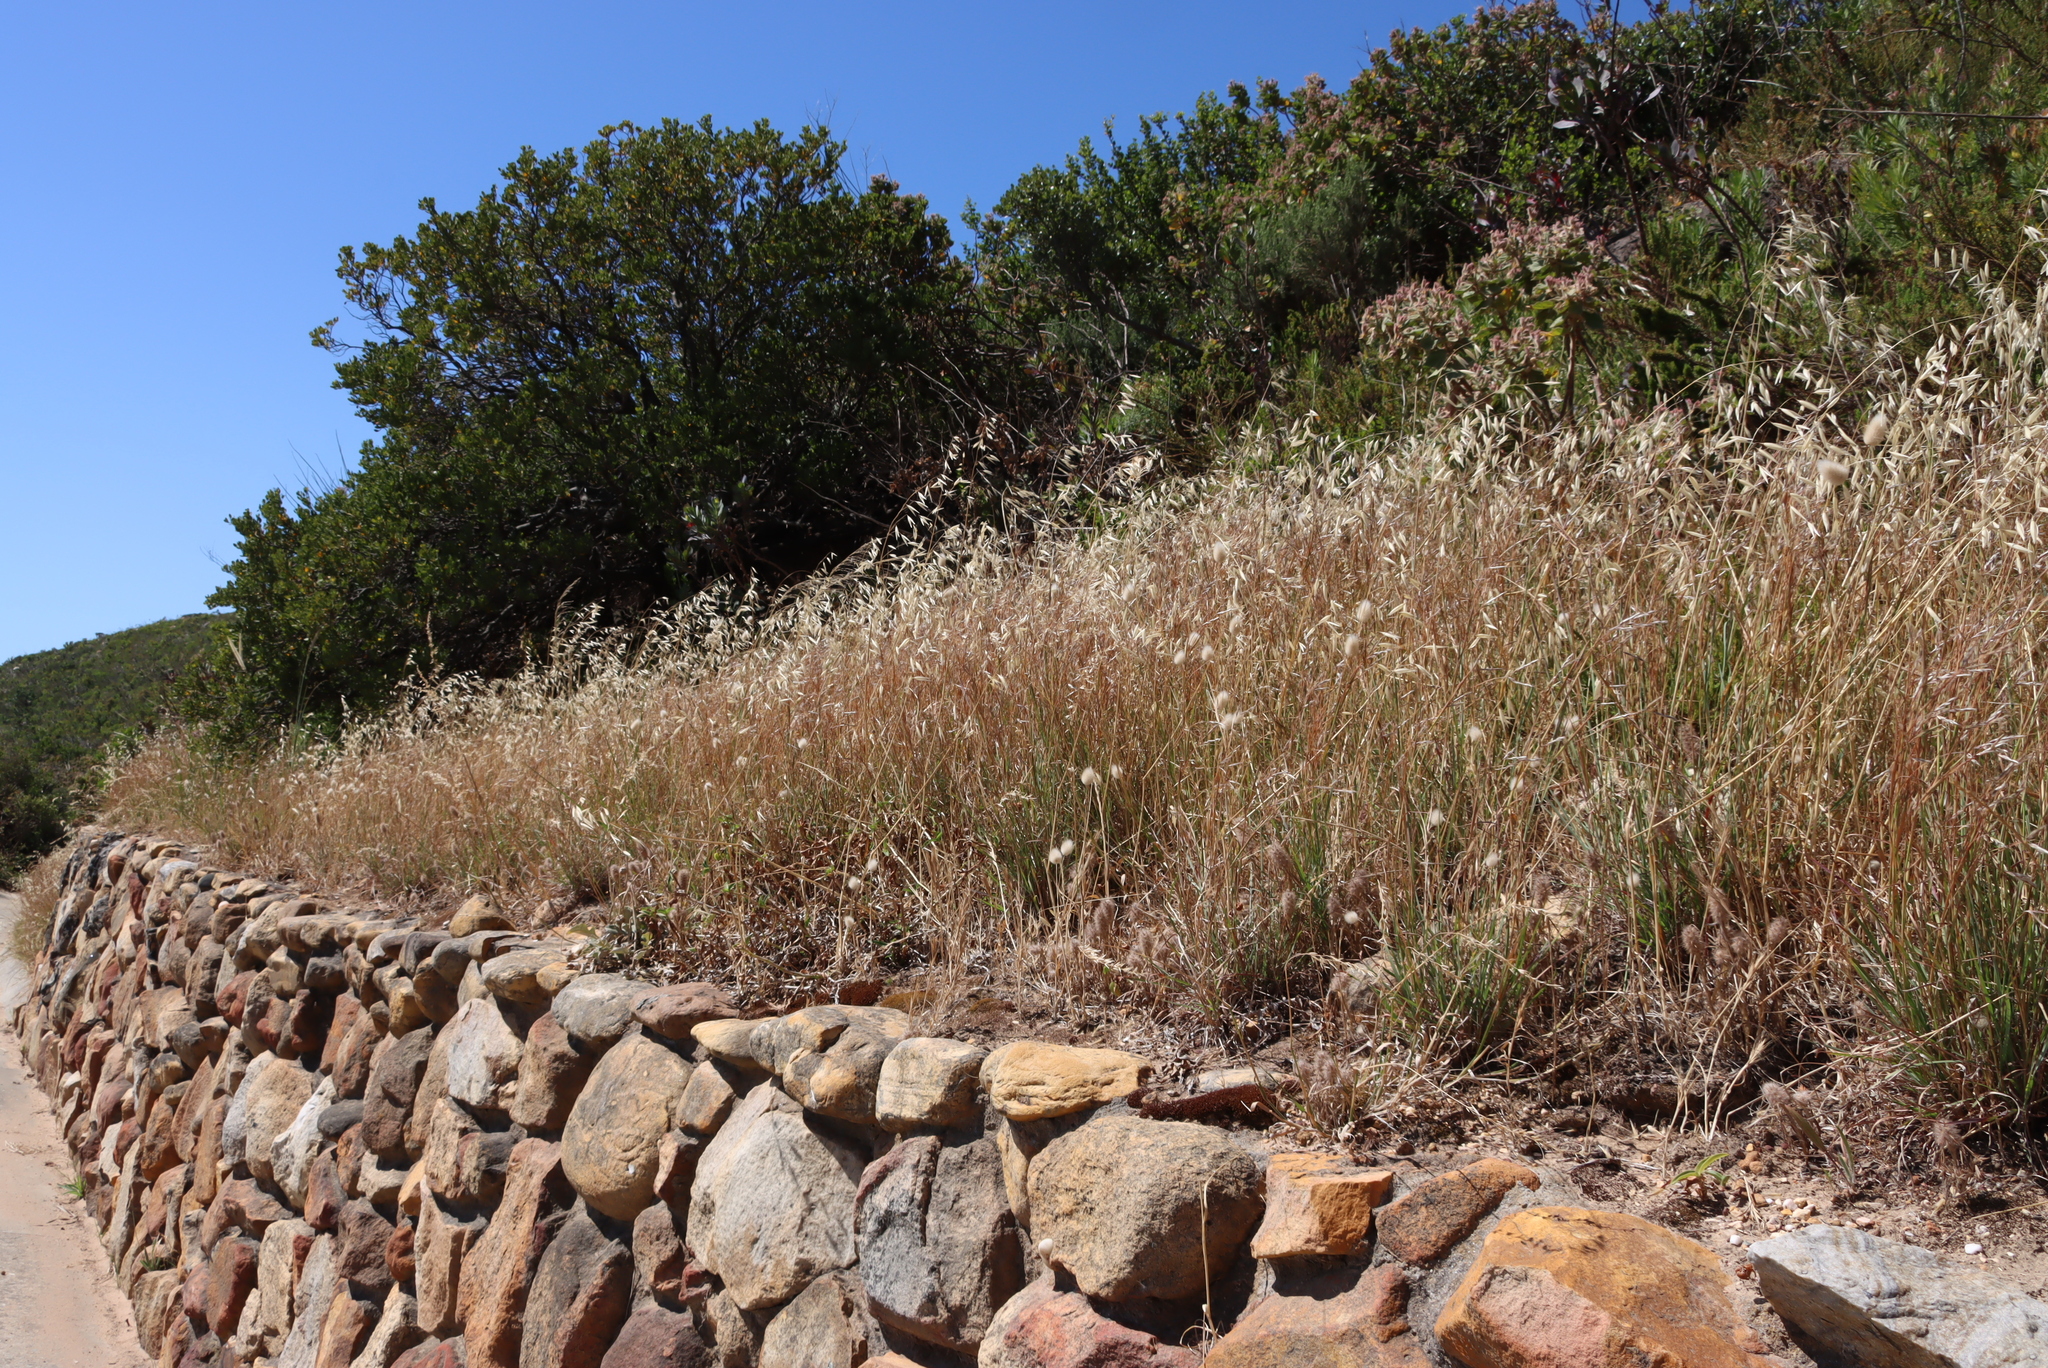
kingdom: Plantae
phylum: Tracheophyta
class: Liliopsida
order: Poales
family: Poaceae
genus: Lagurus
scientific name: Lagurus ovatus
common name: Hare's-tail
